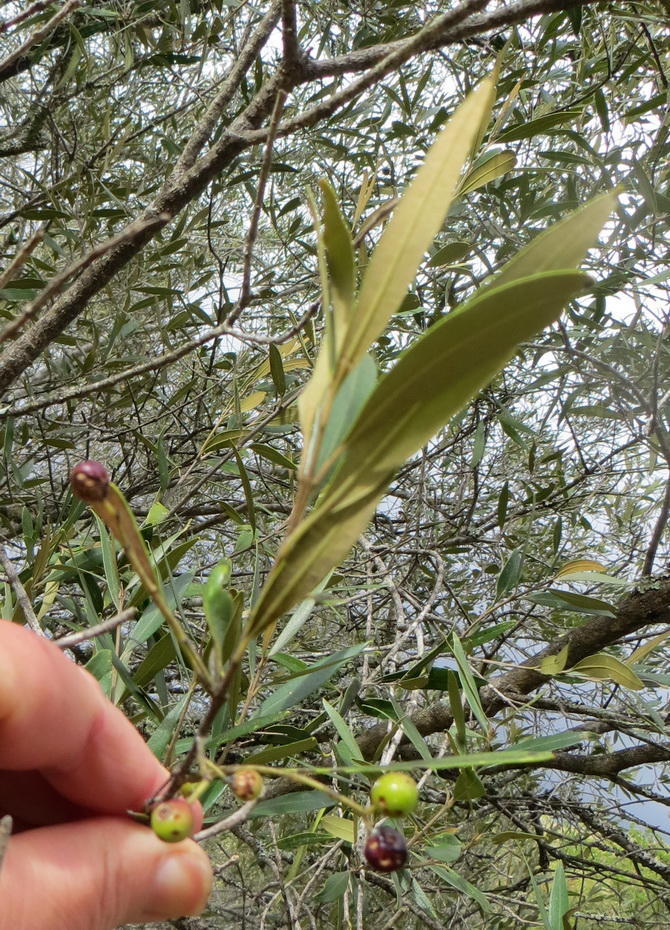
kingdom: Plantae
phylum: Tracheophyta
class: Magnoliopsida
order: Lamiales
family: Oleaceae
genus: Olea
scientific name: Olea europaea
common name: Olive
